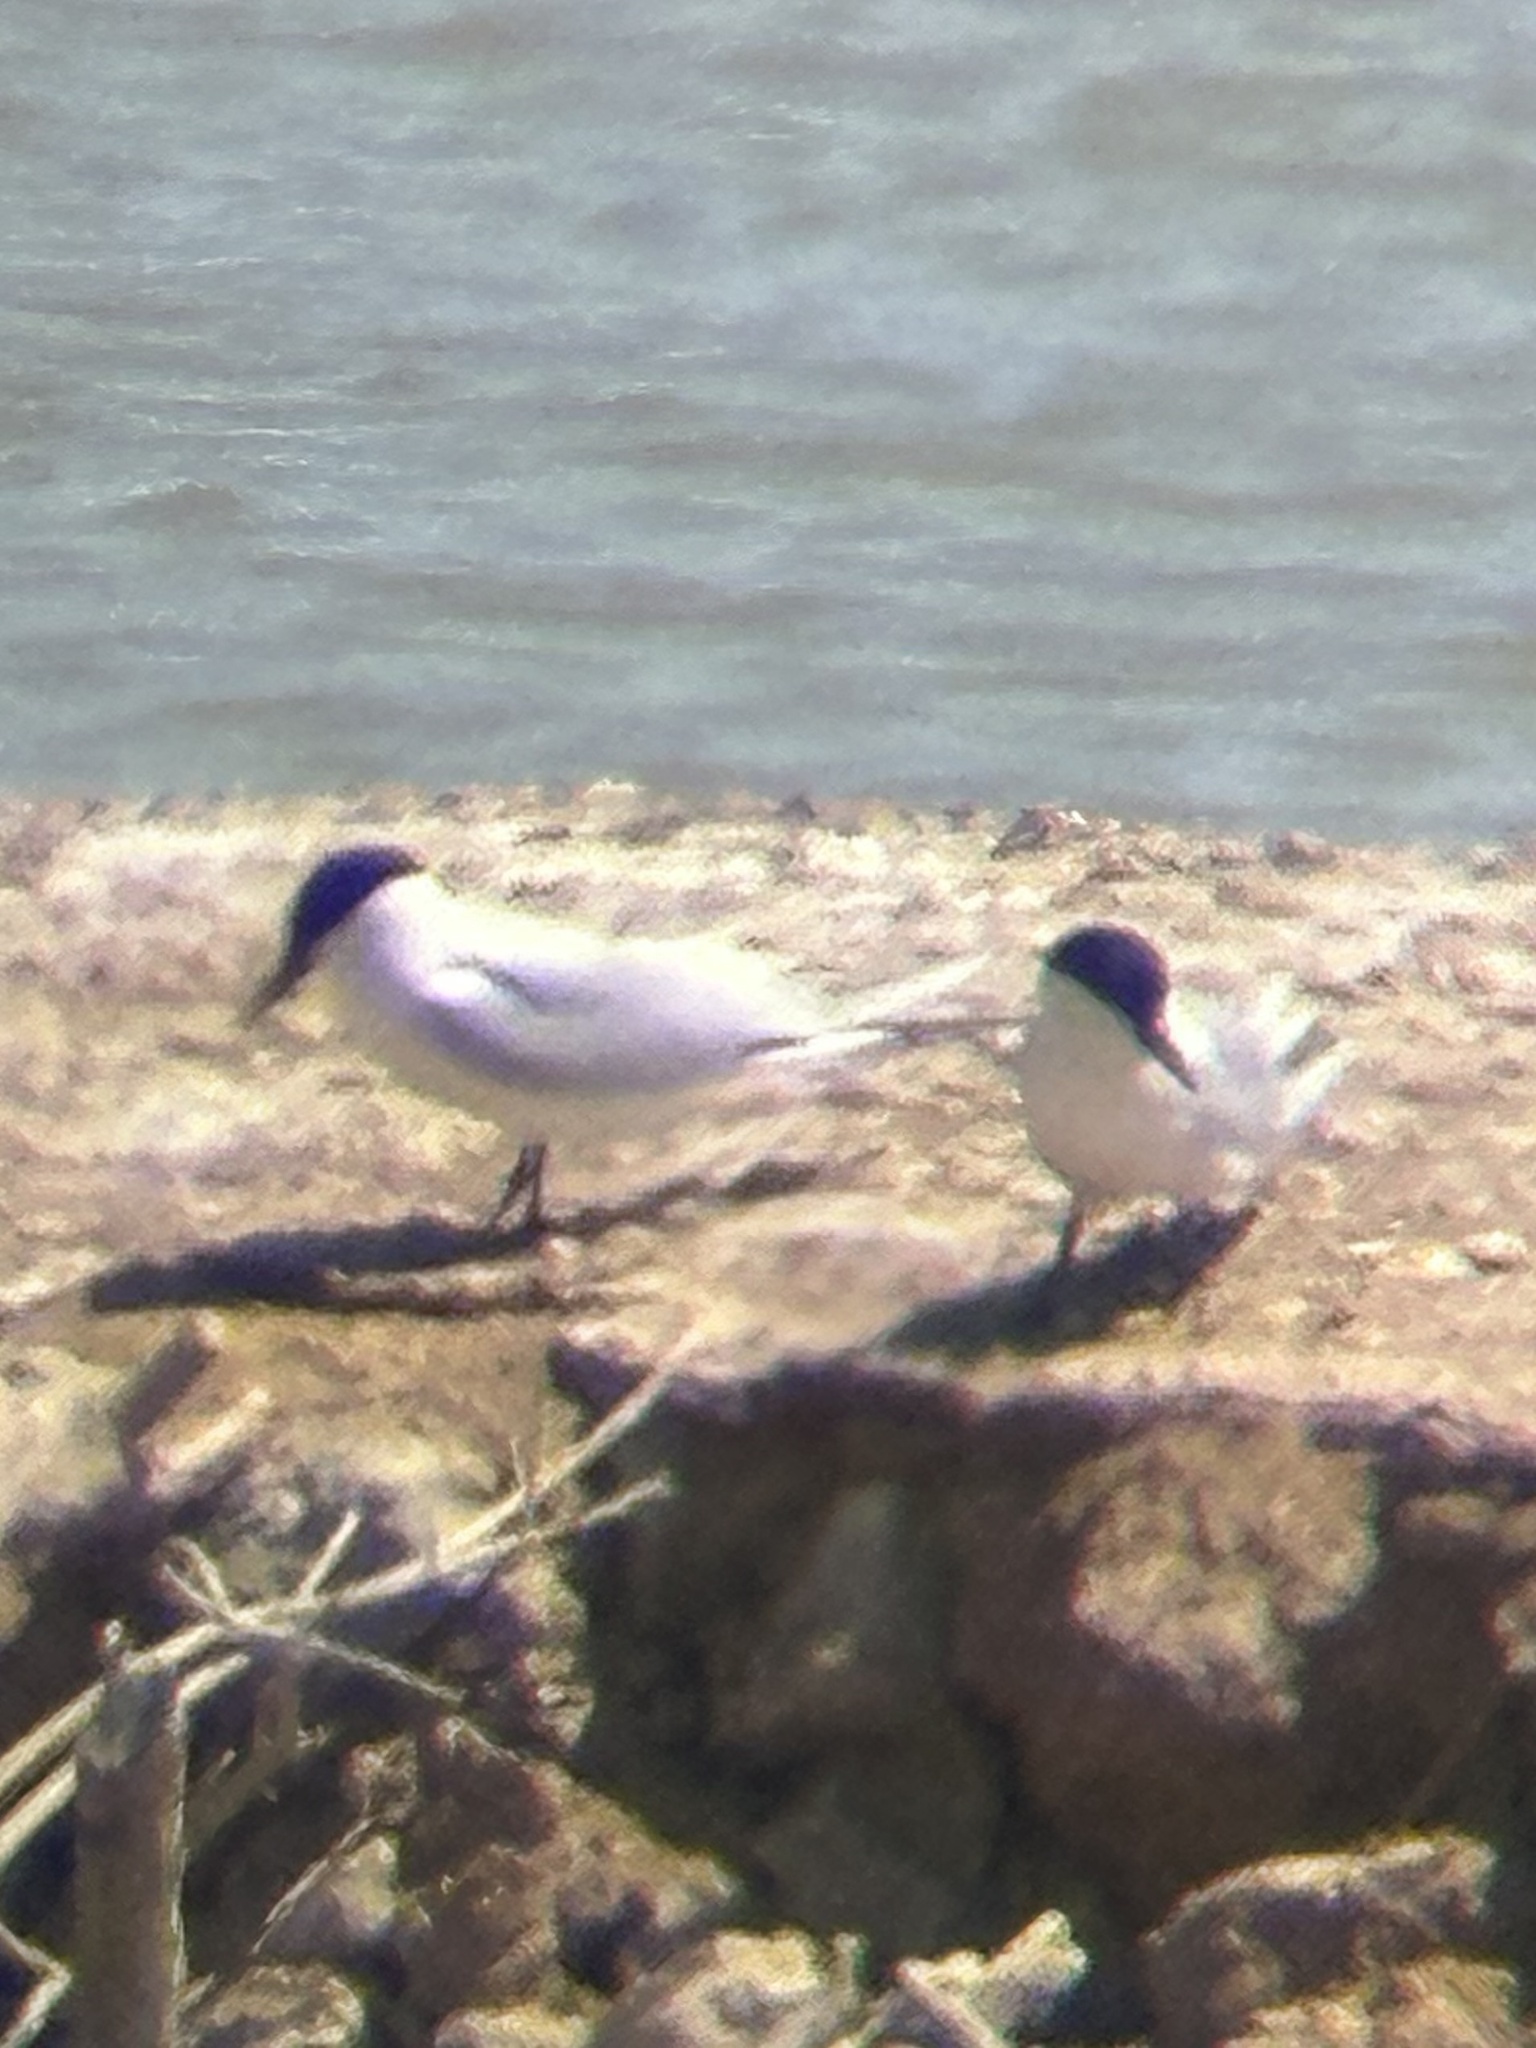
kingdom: Animalia
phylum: Chordata
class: Aves
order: Charadriiformes
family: Laridae
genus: Gelochelidon
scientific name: Gelochelidon nilotica
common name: Gull-billed tern
